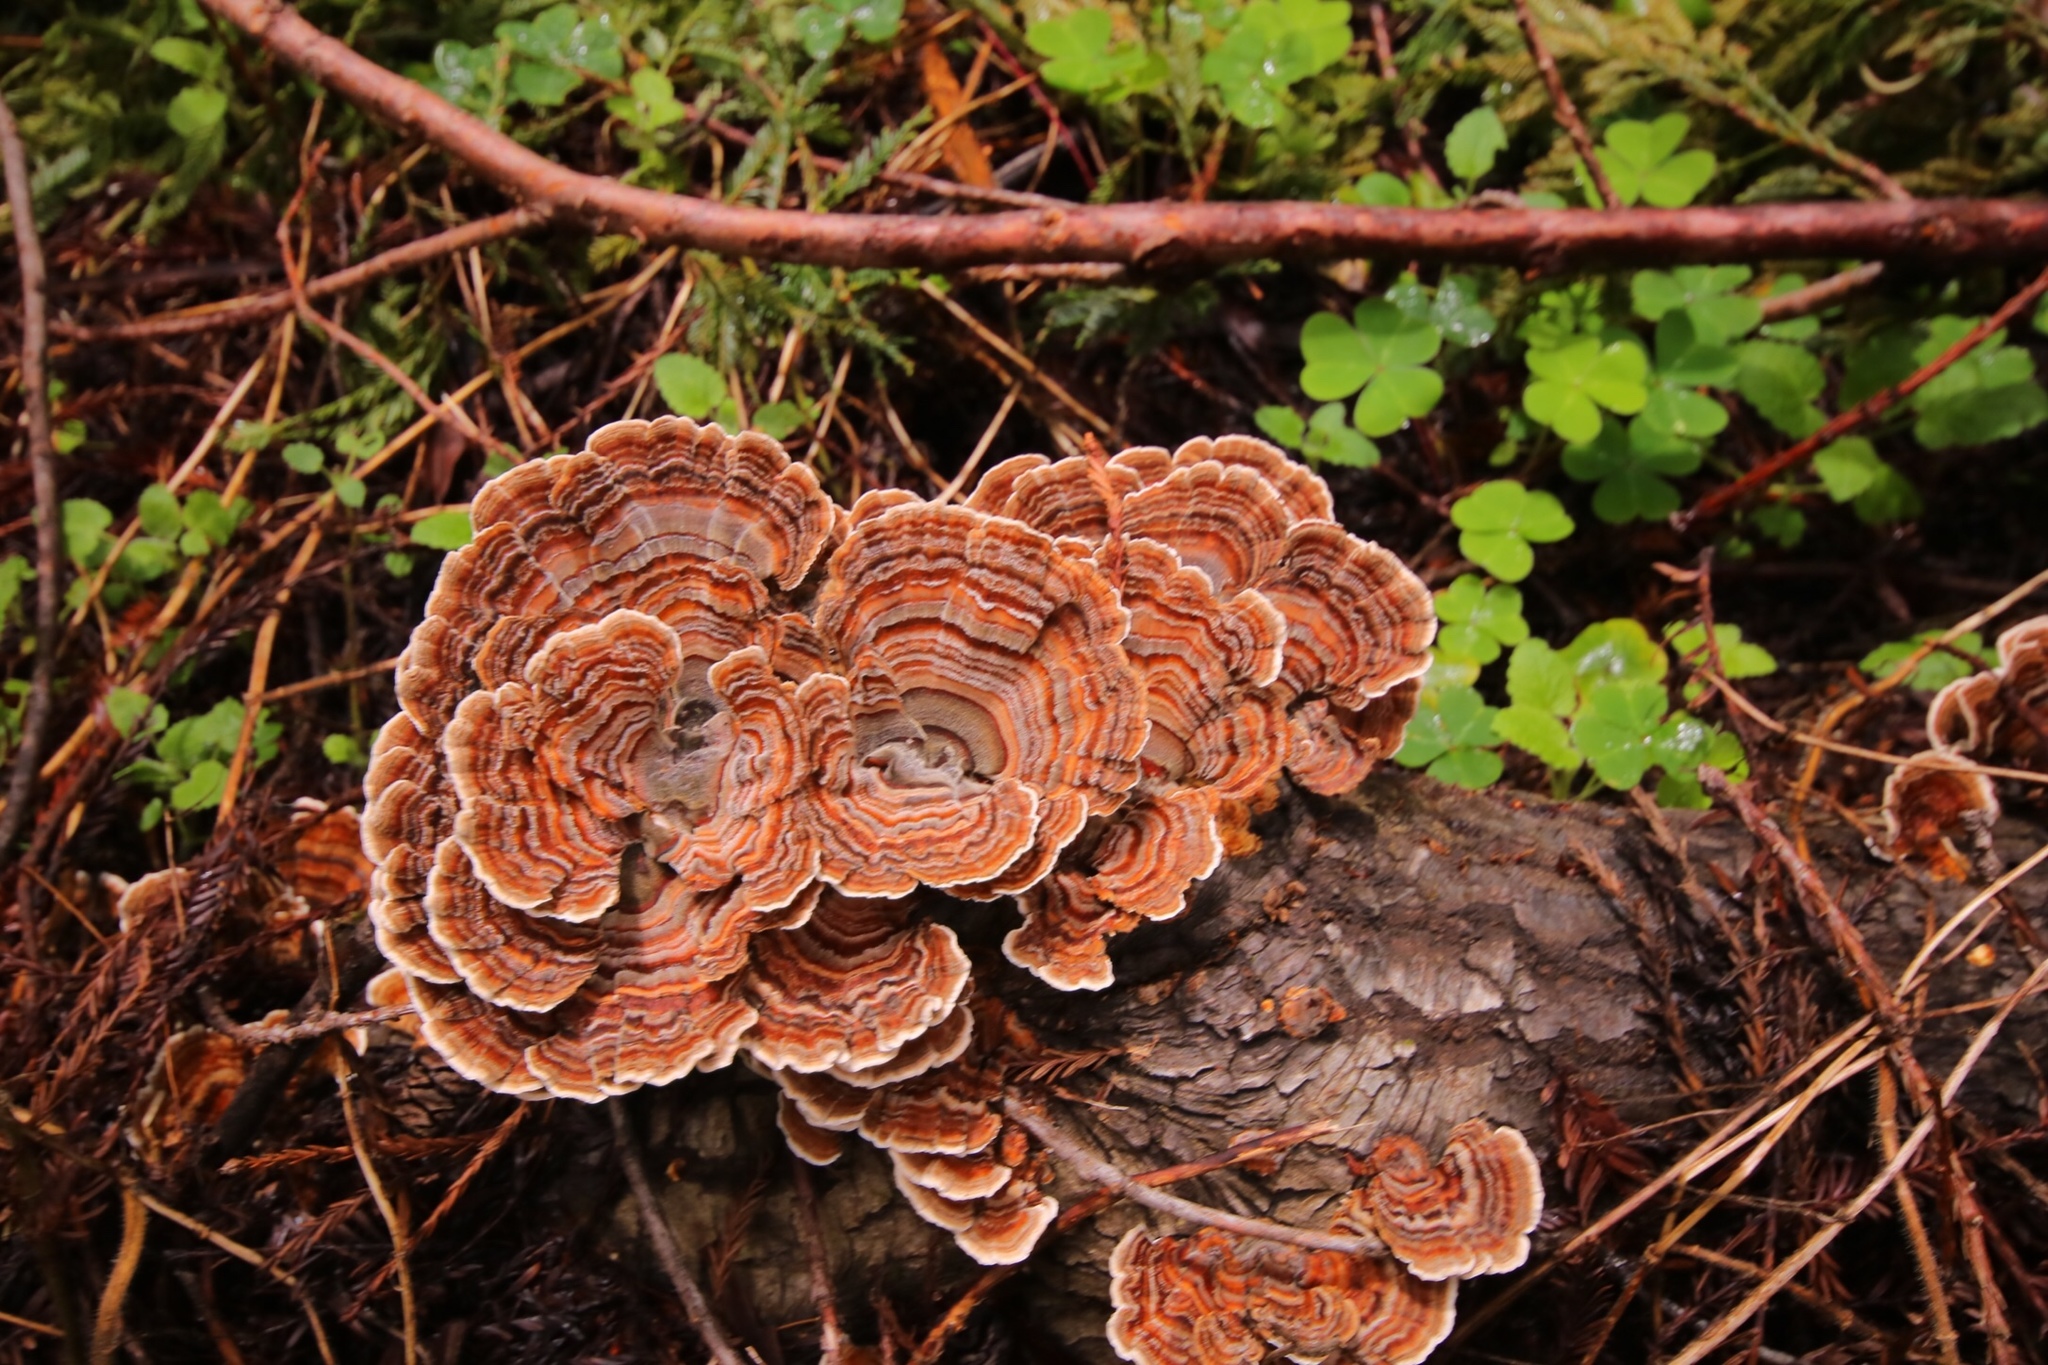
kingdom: Fungi
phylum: Basidiomycota
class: Agaricomycetes
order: Polyporales
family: Polyporaceae
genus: Trametes
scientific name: Trametes versicolor
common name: Turkeytail
